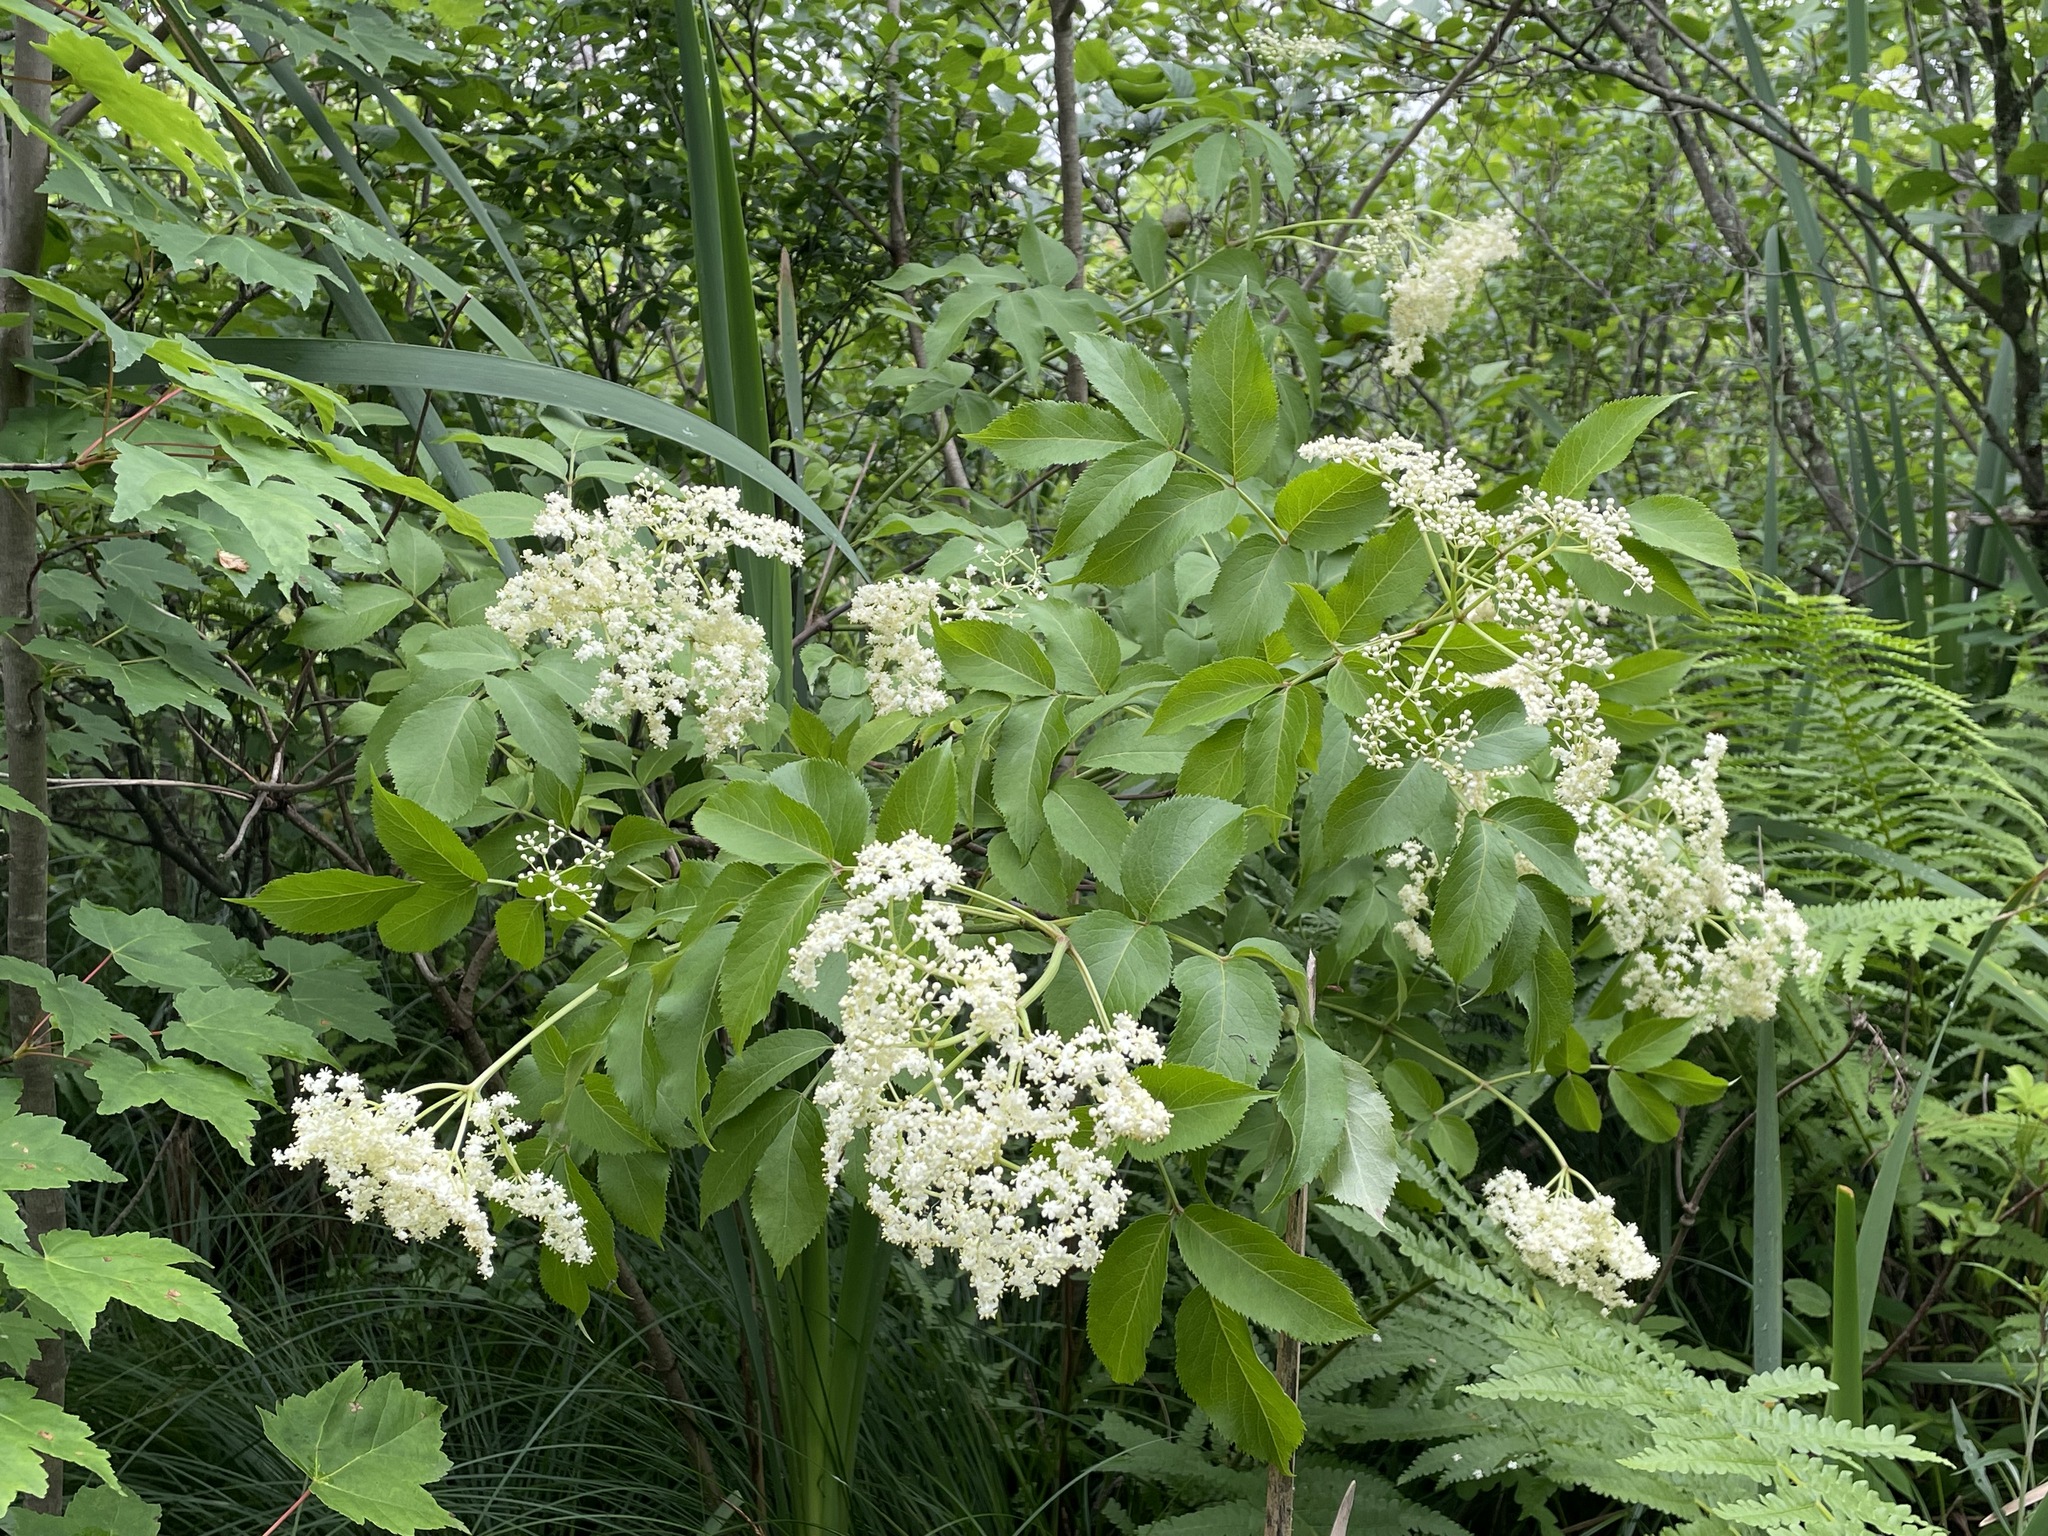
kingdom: Plantae
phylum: Tracheophyta
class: Magnoliopsida
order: Dipsacales
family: Viburnaceae
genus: Sambucus
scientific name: Sambucus canadensis
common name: American elder
